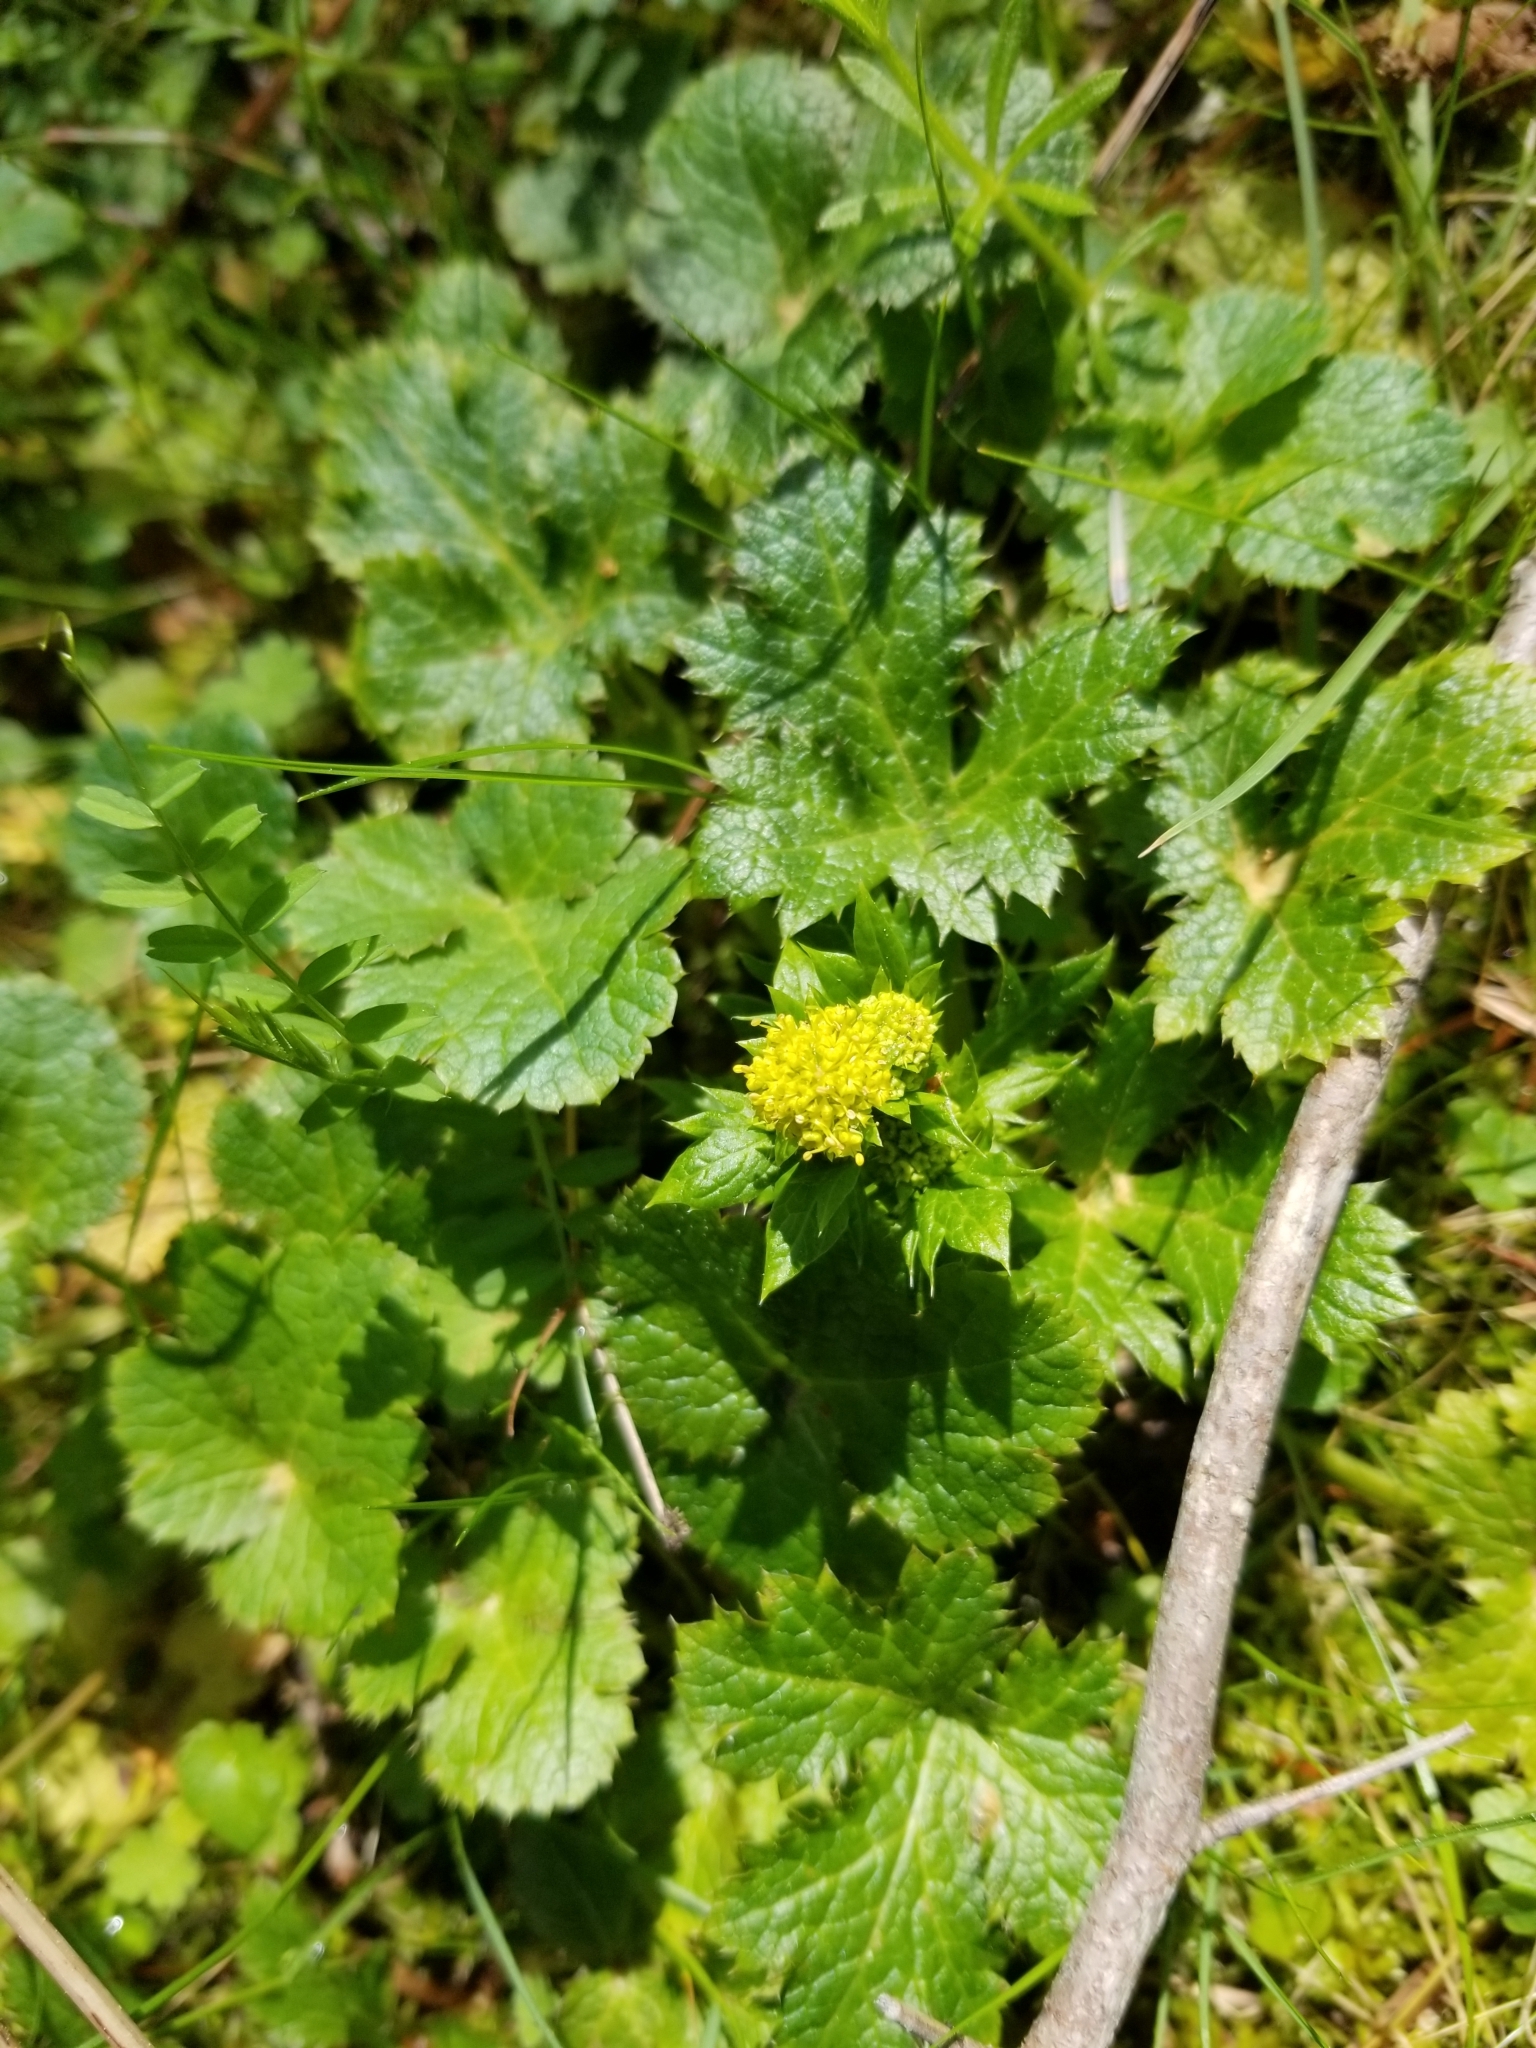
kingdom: Plantae
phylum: Tracheophyta
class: Magnoliopsida
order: Apiales
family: Apiaceae
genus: Sanicula
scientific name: Sanicula crassicaulis
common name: Western snakeroot
